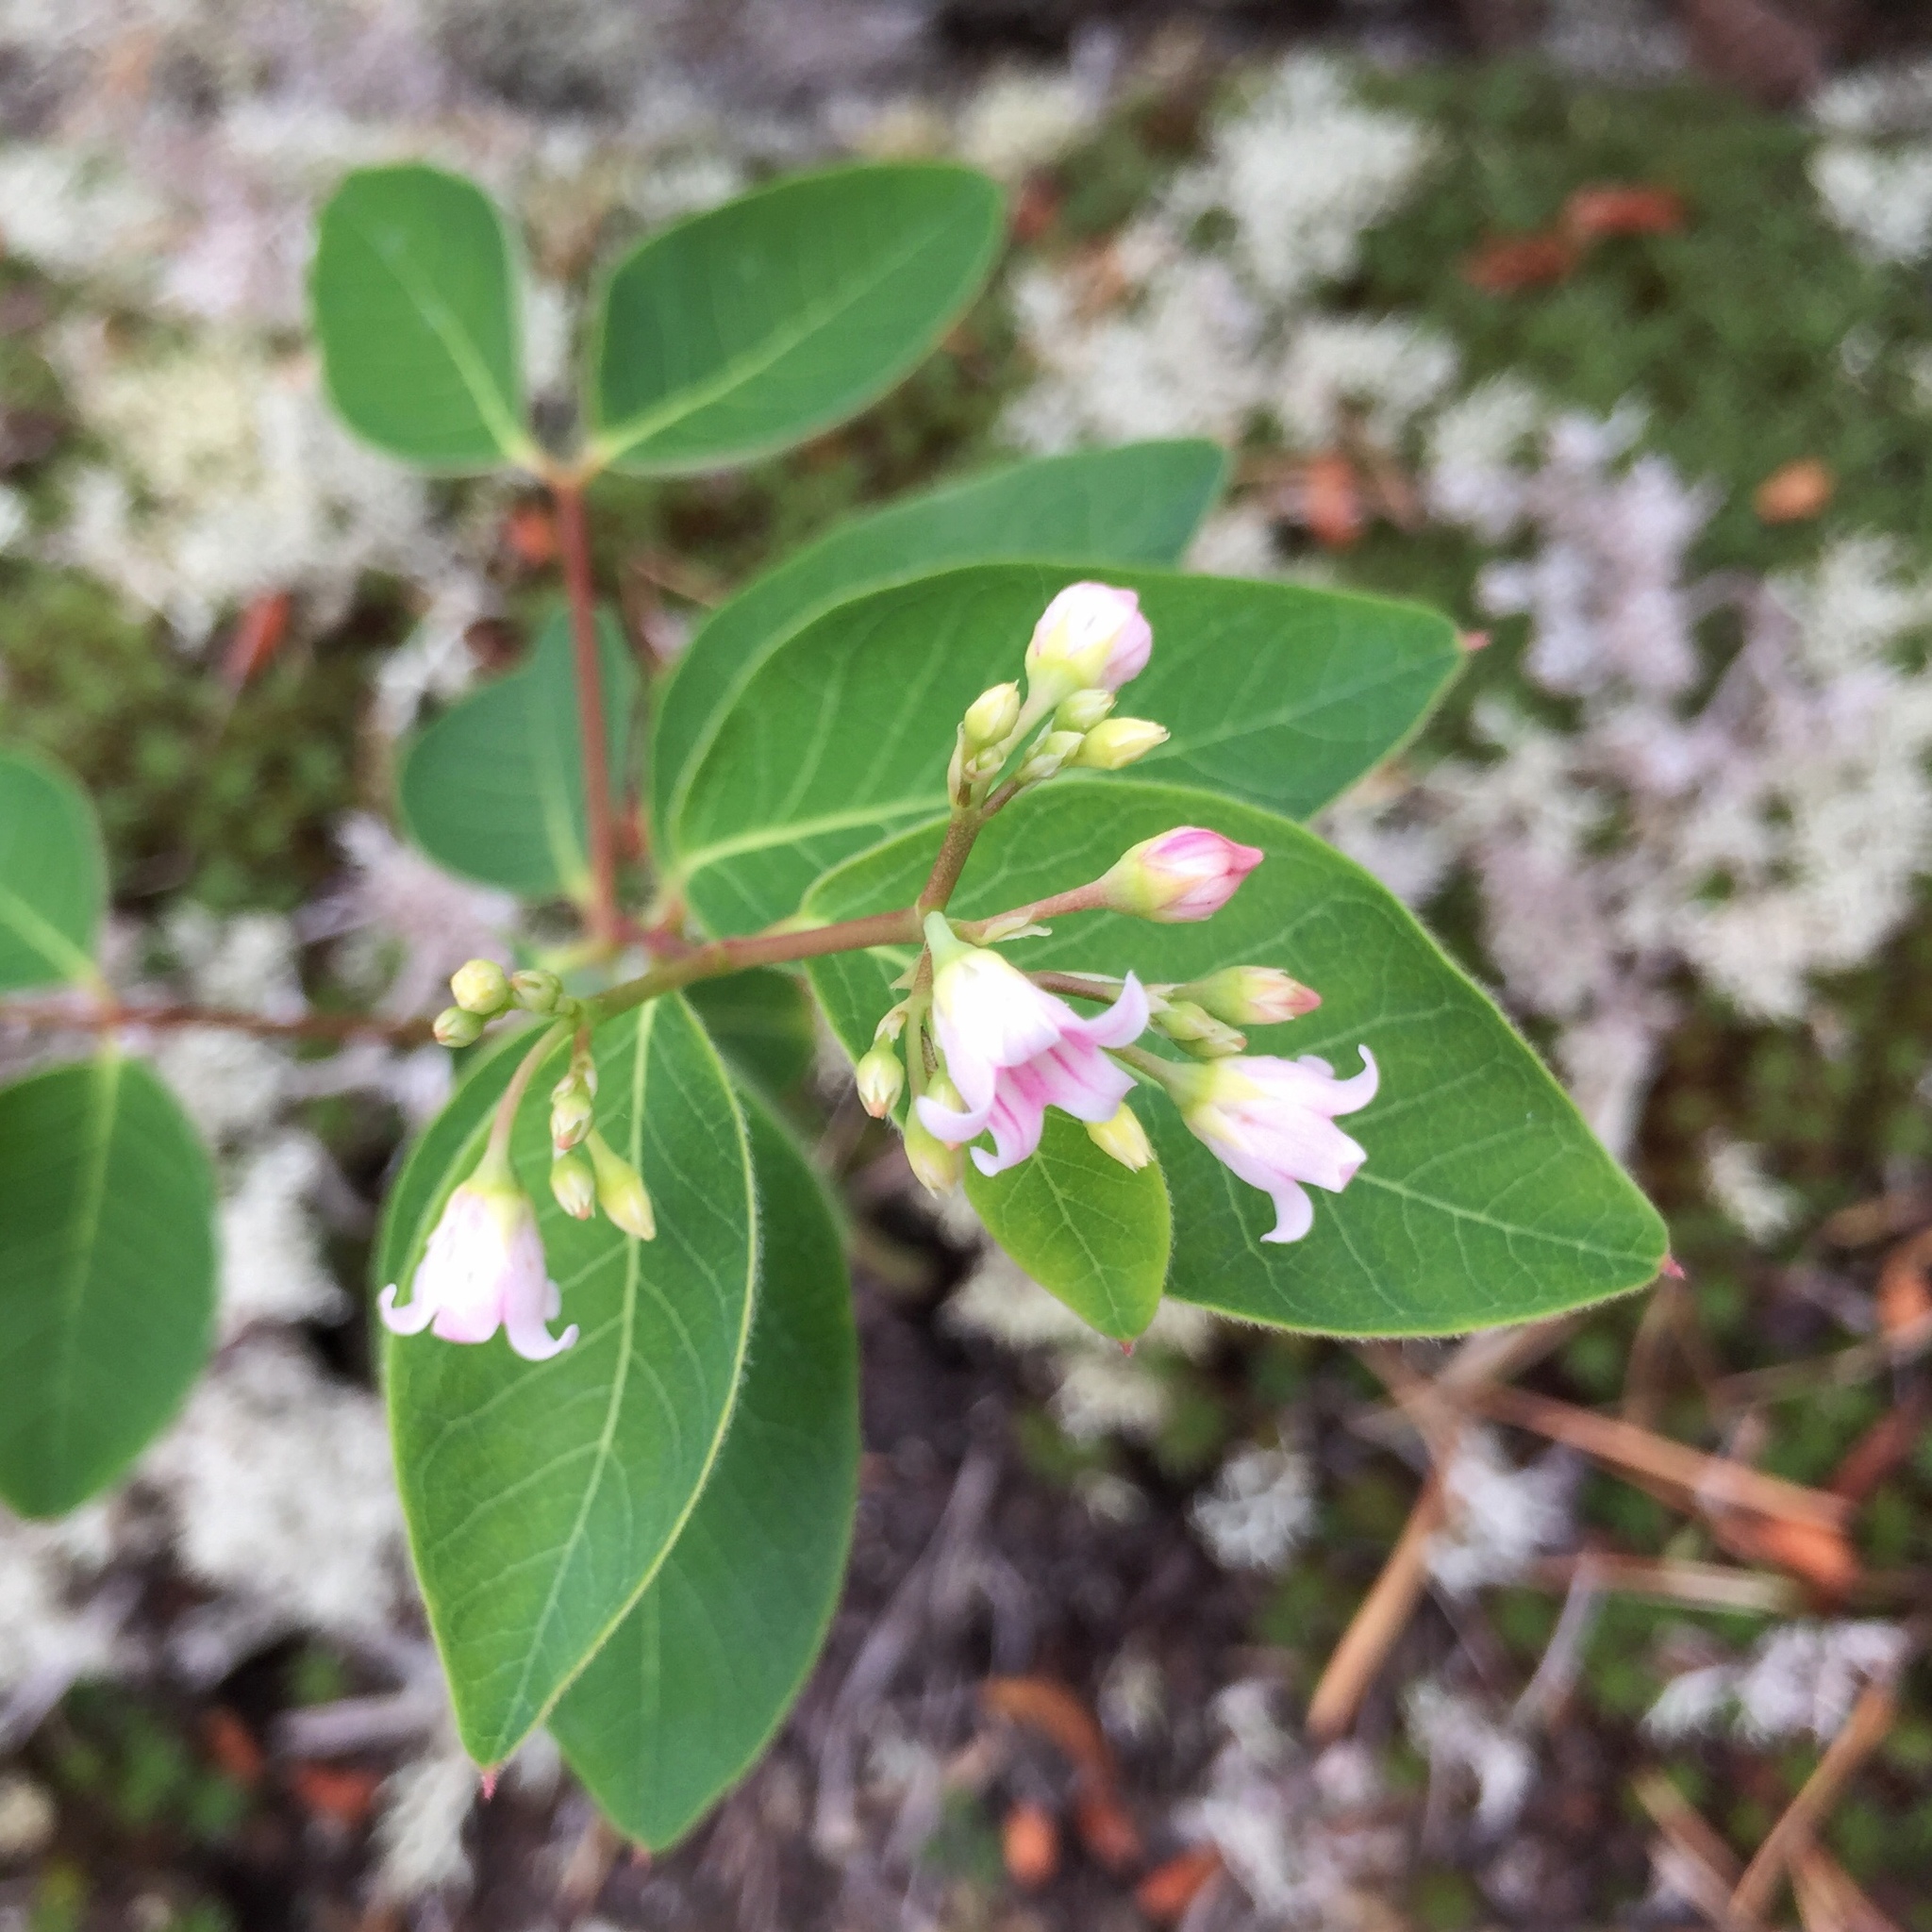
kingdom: Plantae
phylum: Tracheophyta
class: Magnoliopsida
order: Gentianales
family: Apocynaceae
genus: Apocynum
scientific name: Apocynum androsaemifolium
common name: Spreading dogbane
